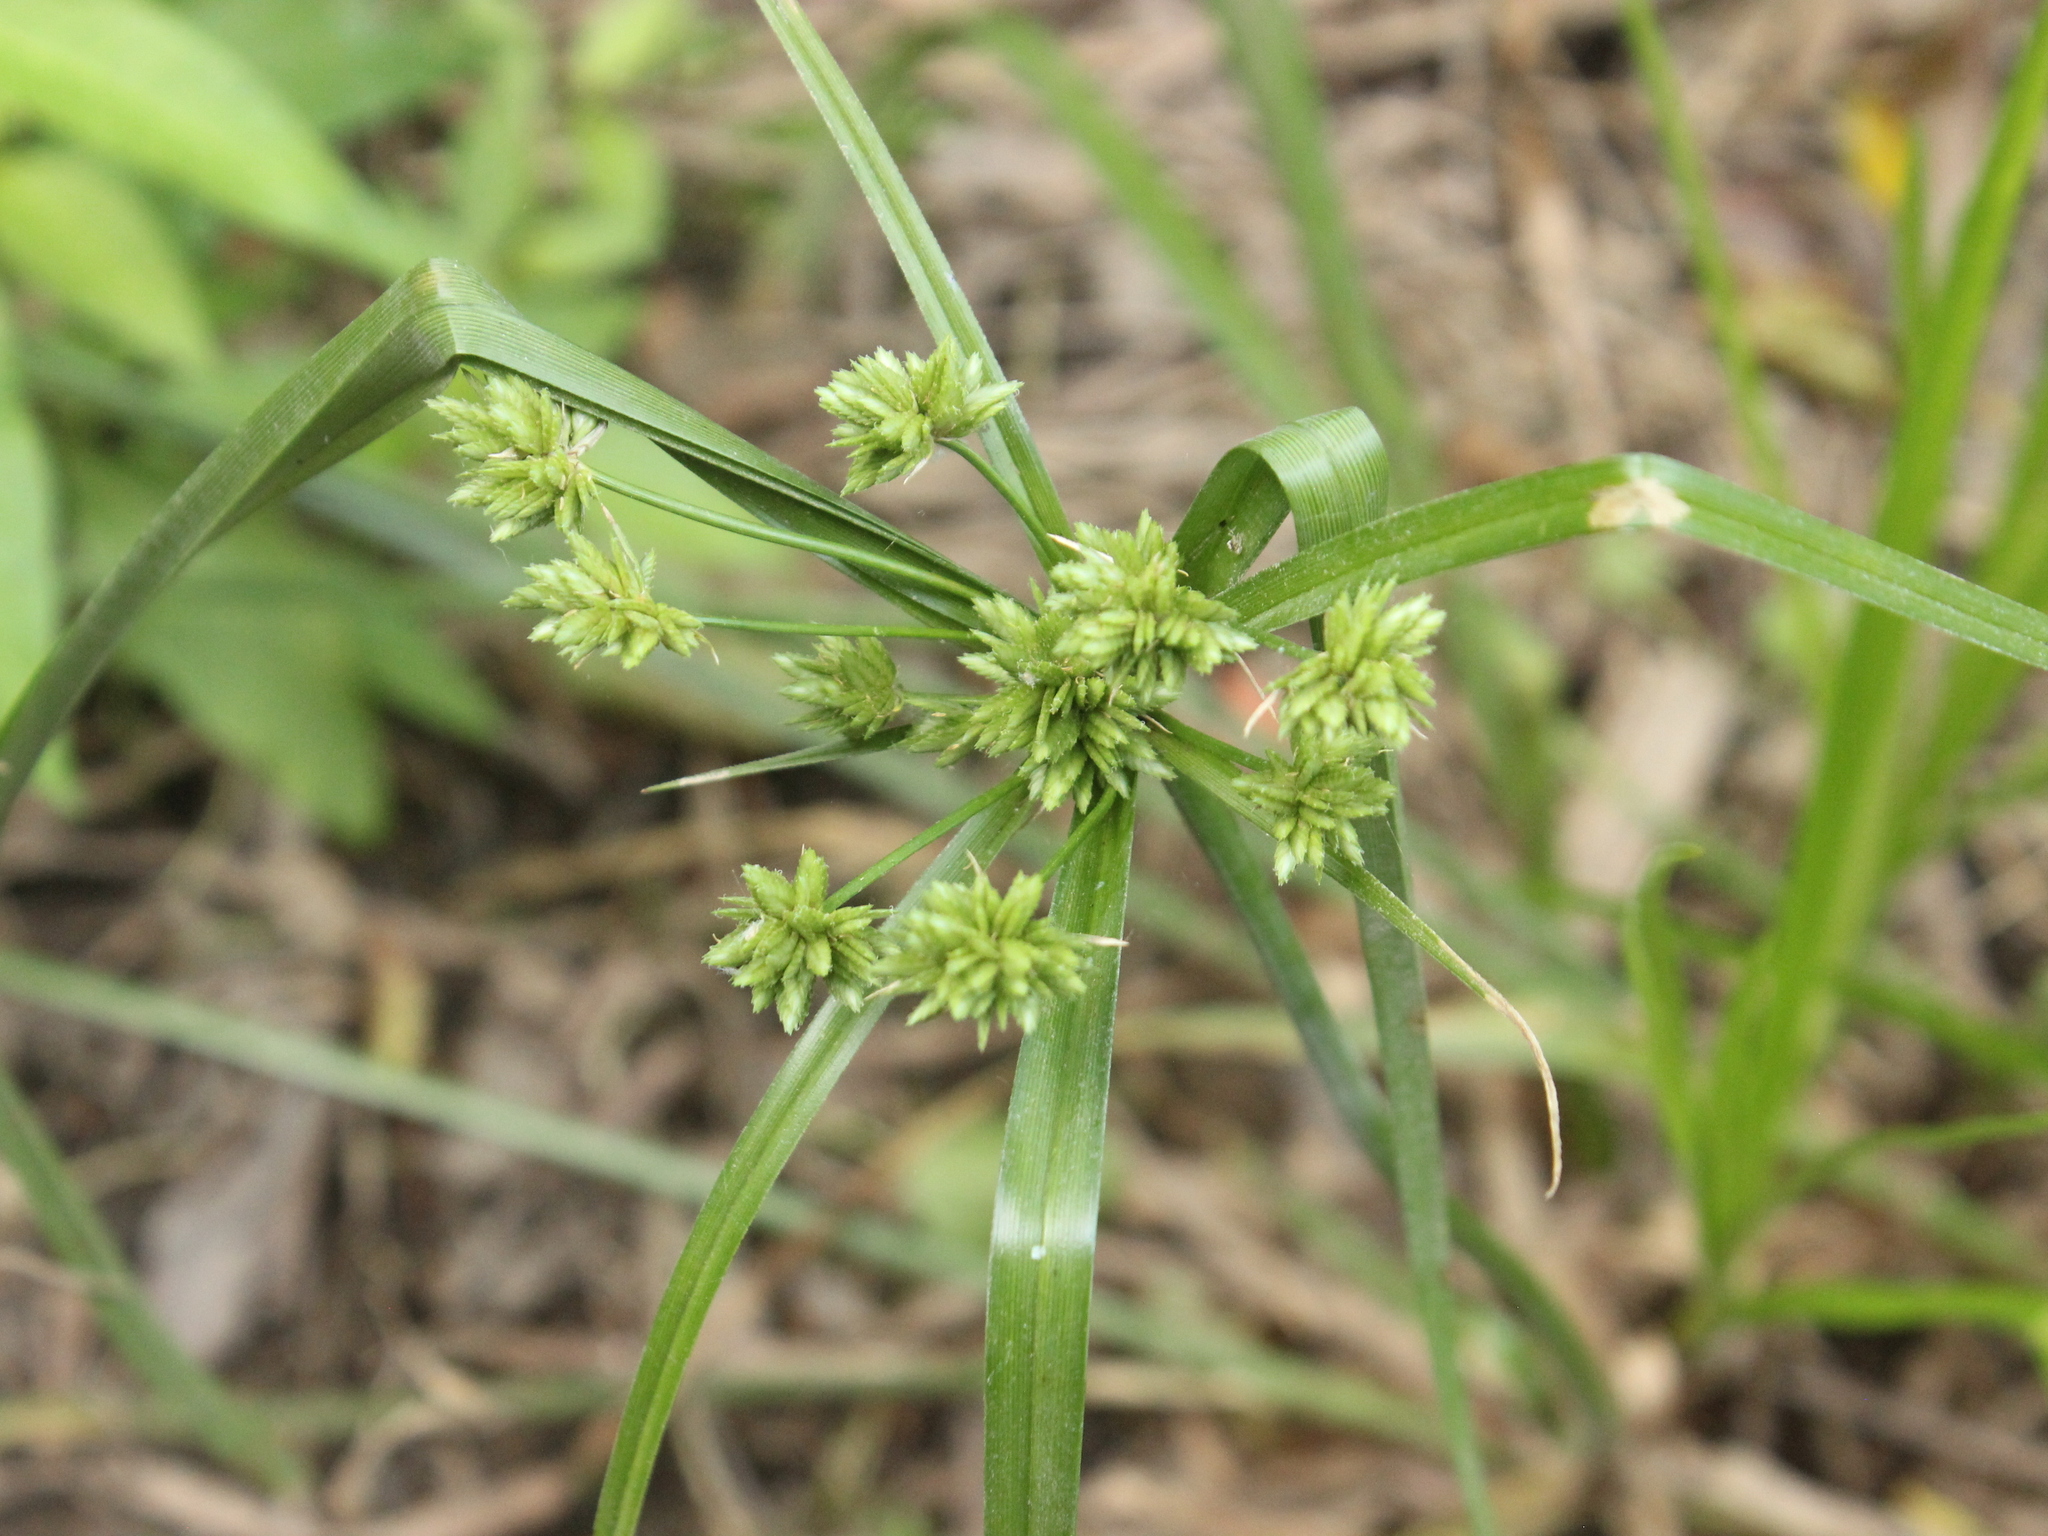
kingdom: Plantae
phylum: Tracheophyta
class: Liliopsida
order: Poales
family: Cyperaceae
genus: Cyperus
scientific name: Cyperus eragrostis
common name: Tall flatsedge
